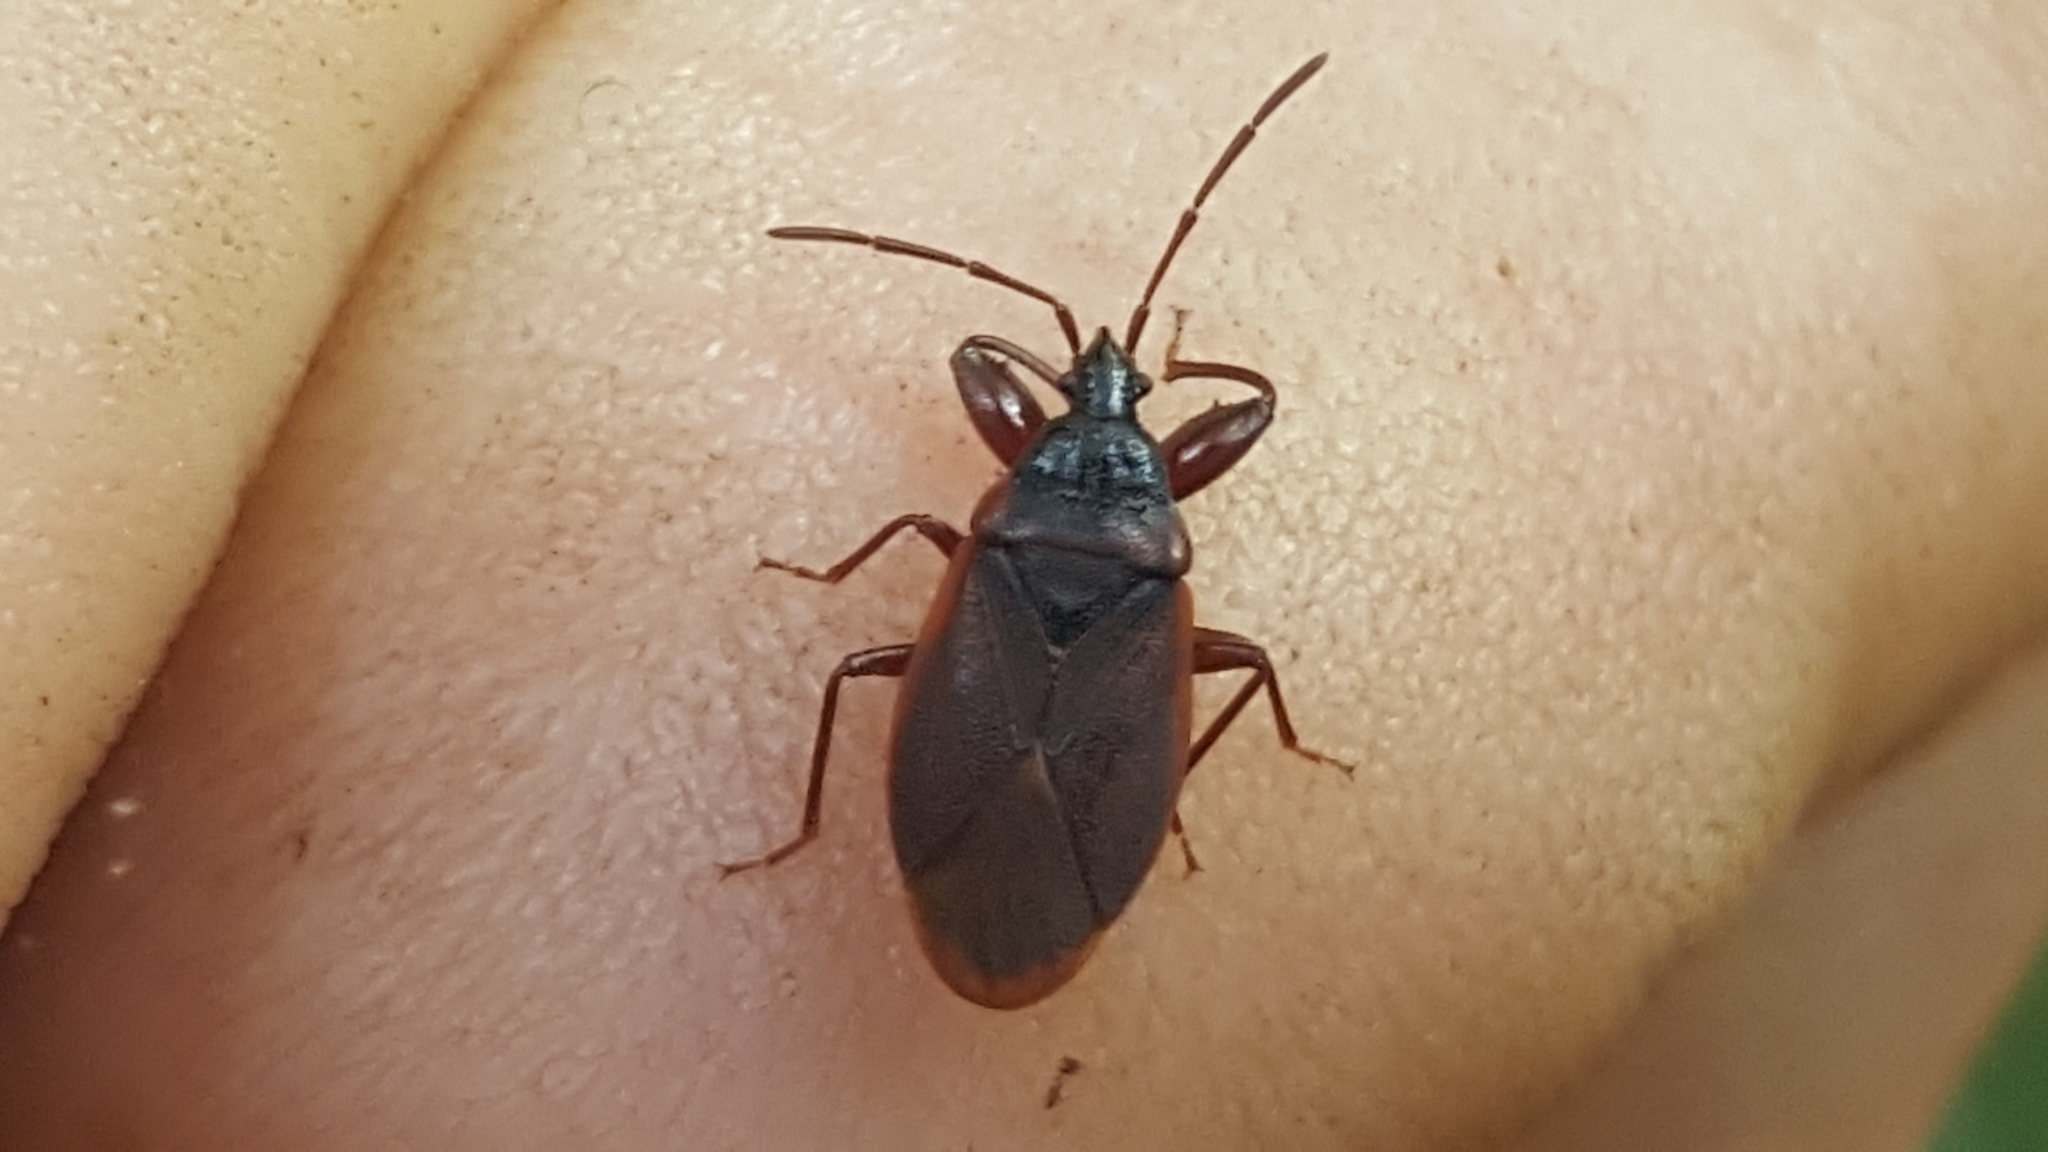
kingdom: Animalia
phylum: Arthropoda
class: Insecta
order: Hemiptera
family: Rhyparochromidae
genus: Gastrodes
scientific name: Gastrodes grossipes
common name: Pine cone bug
